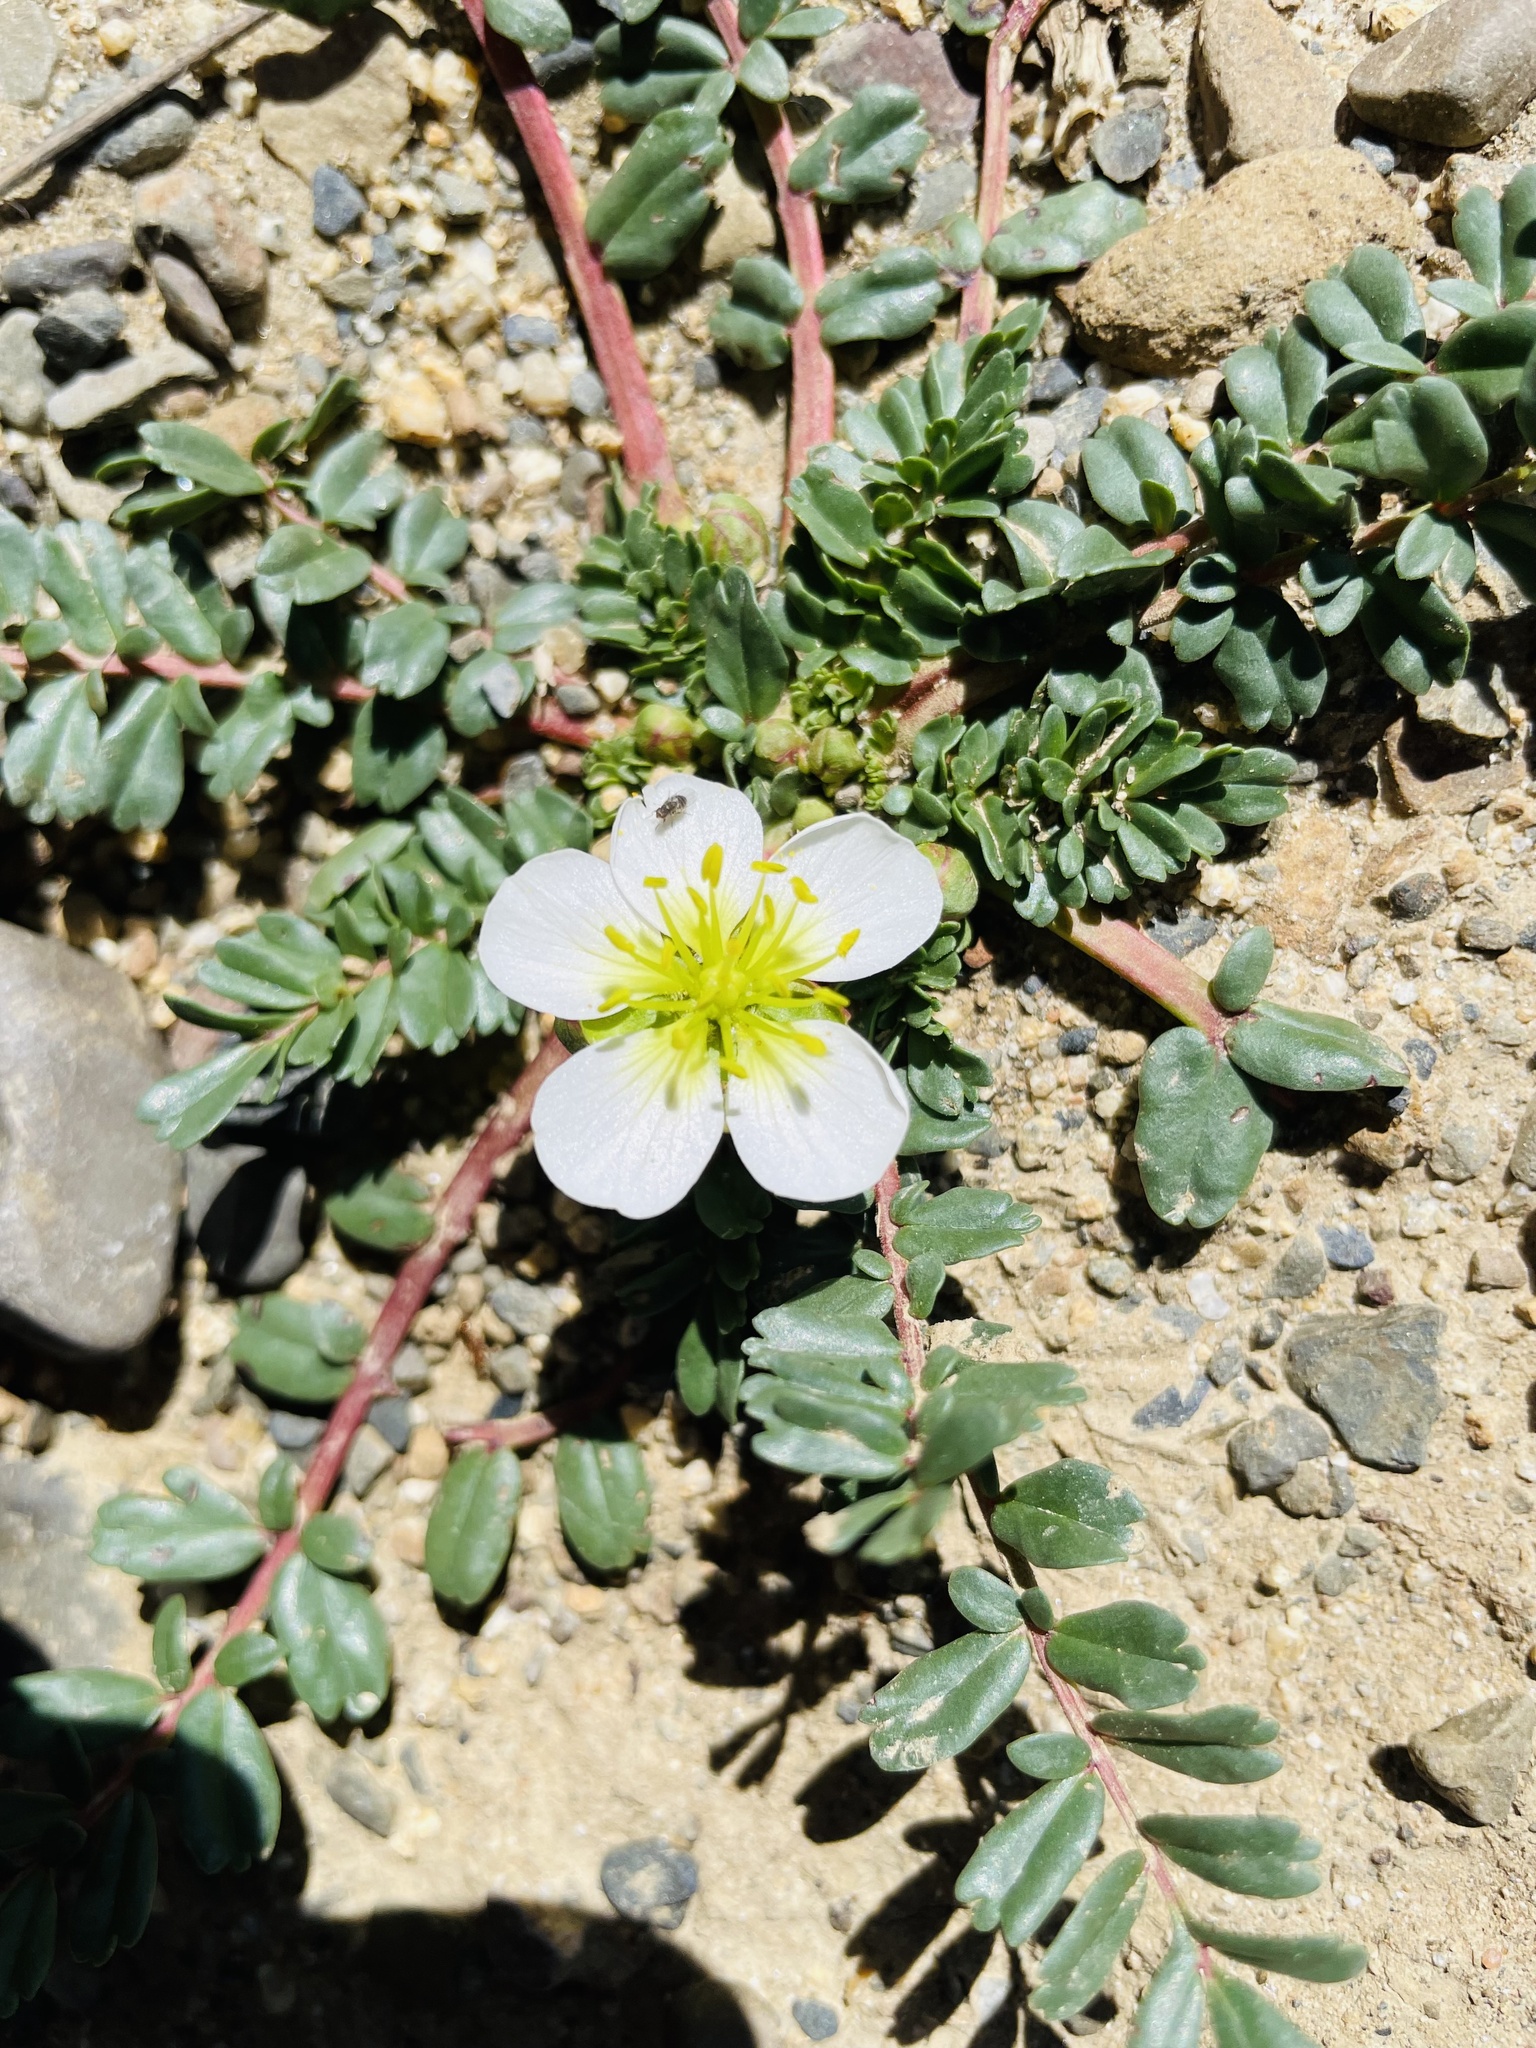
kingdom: Plantae
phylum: Tracheophyta
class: Magnoliopsida
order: Geraniales
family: Hypseocharitaceae
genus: Hypseocharis
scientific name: Hypseocharis bilobata
